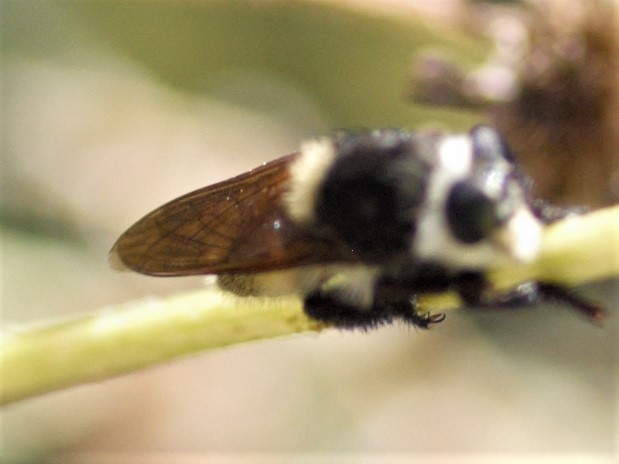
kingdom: Animalia
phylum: Arthropoda
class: Insecta
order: Diptera
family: Asilidae
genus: Mallophora
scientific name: Mallophora fautrix
